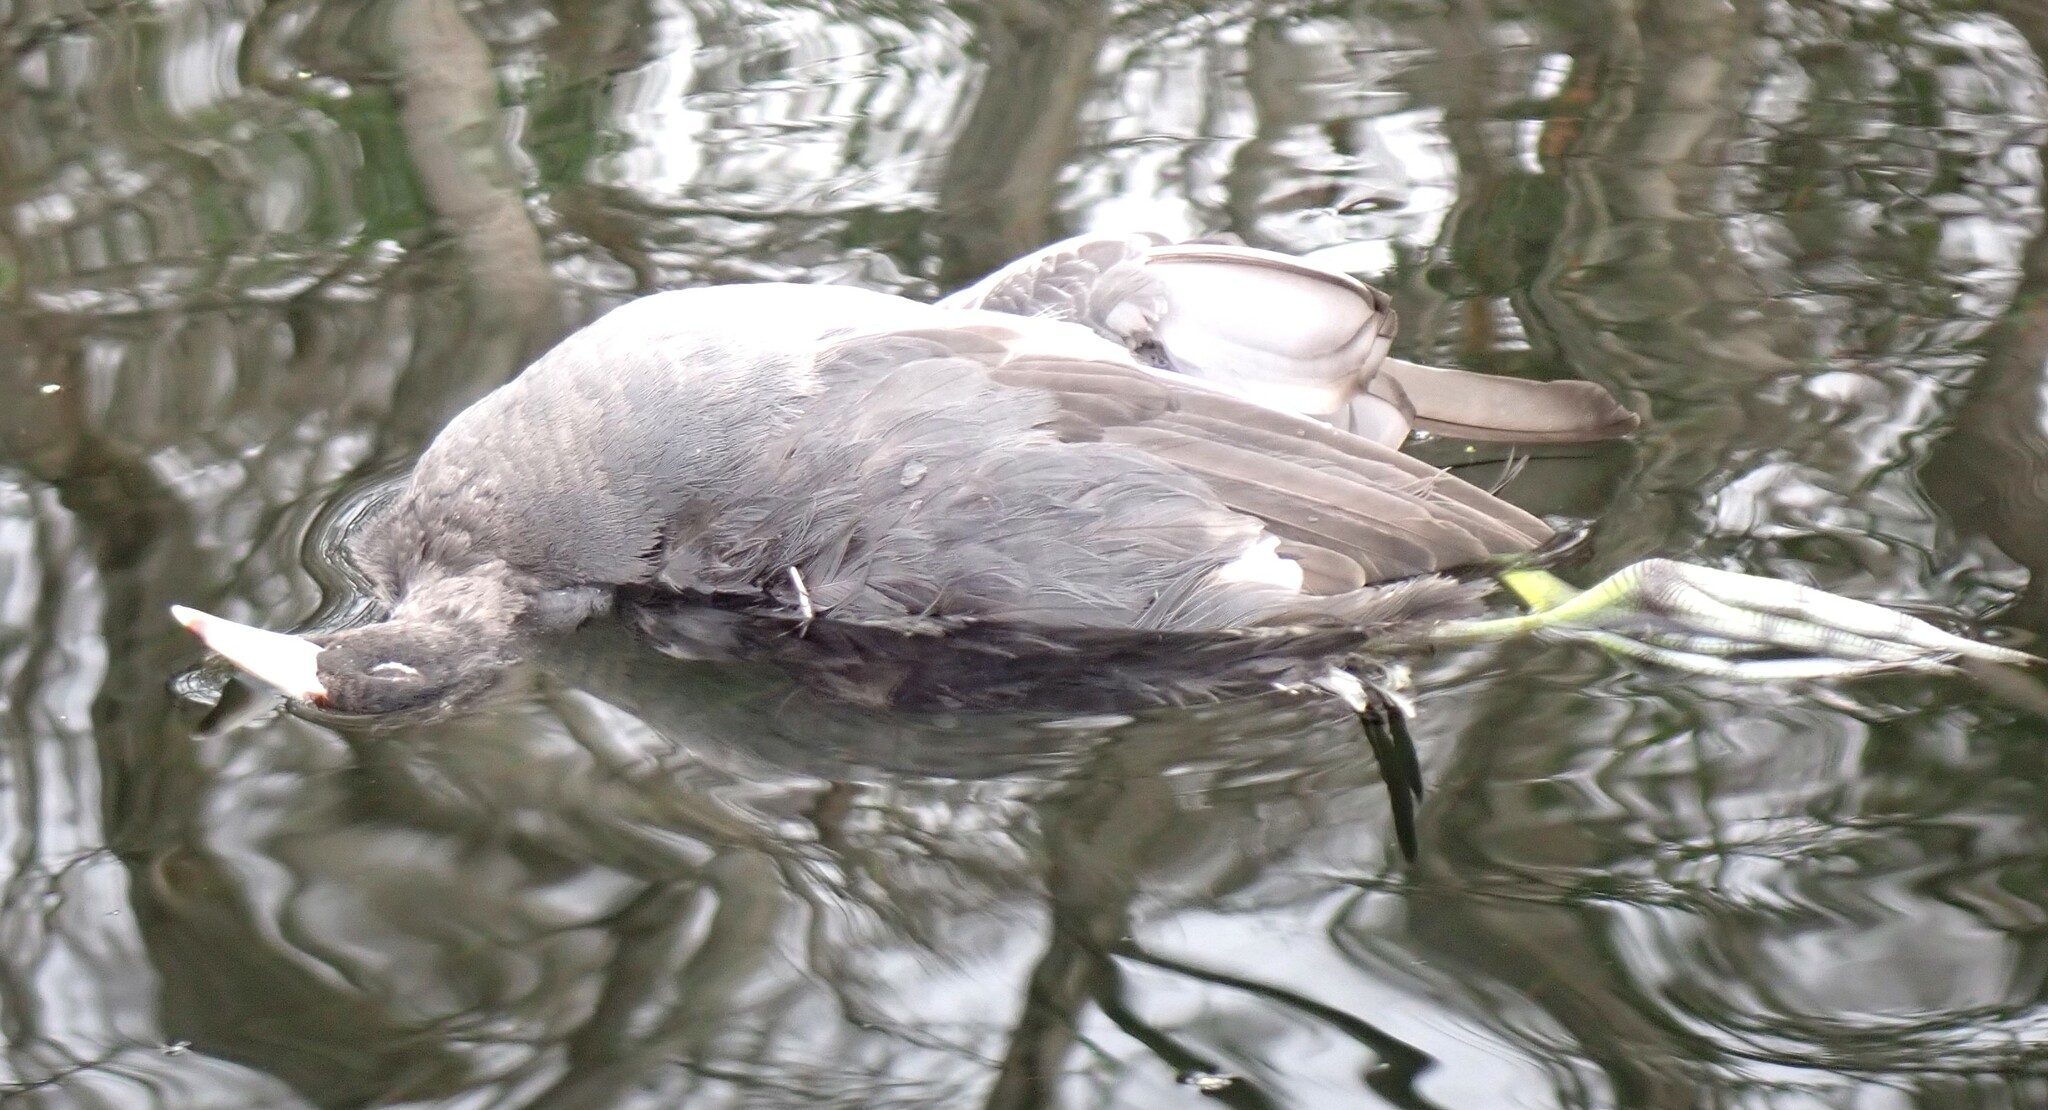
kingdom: Animalia
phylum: Chordata
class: Aves
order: Gruiformes
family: Rallidae
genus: Fulica
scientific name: Fulica americana
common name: American coot
